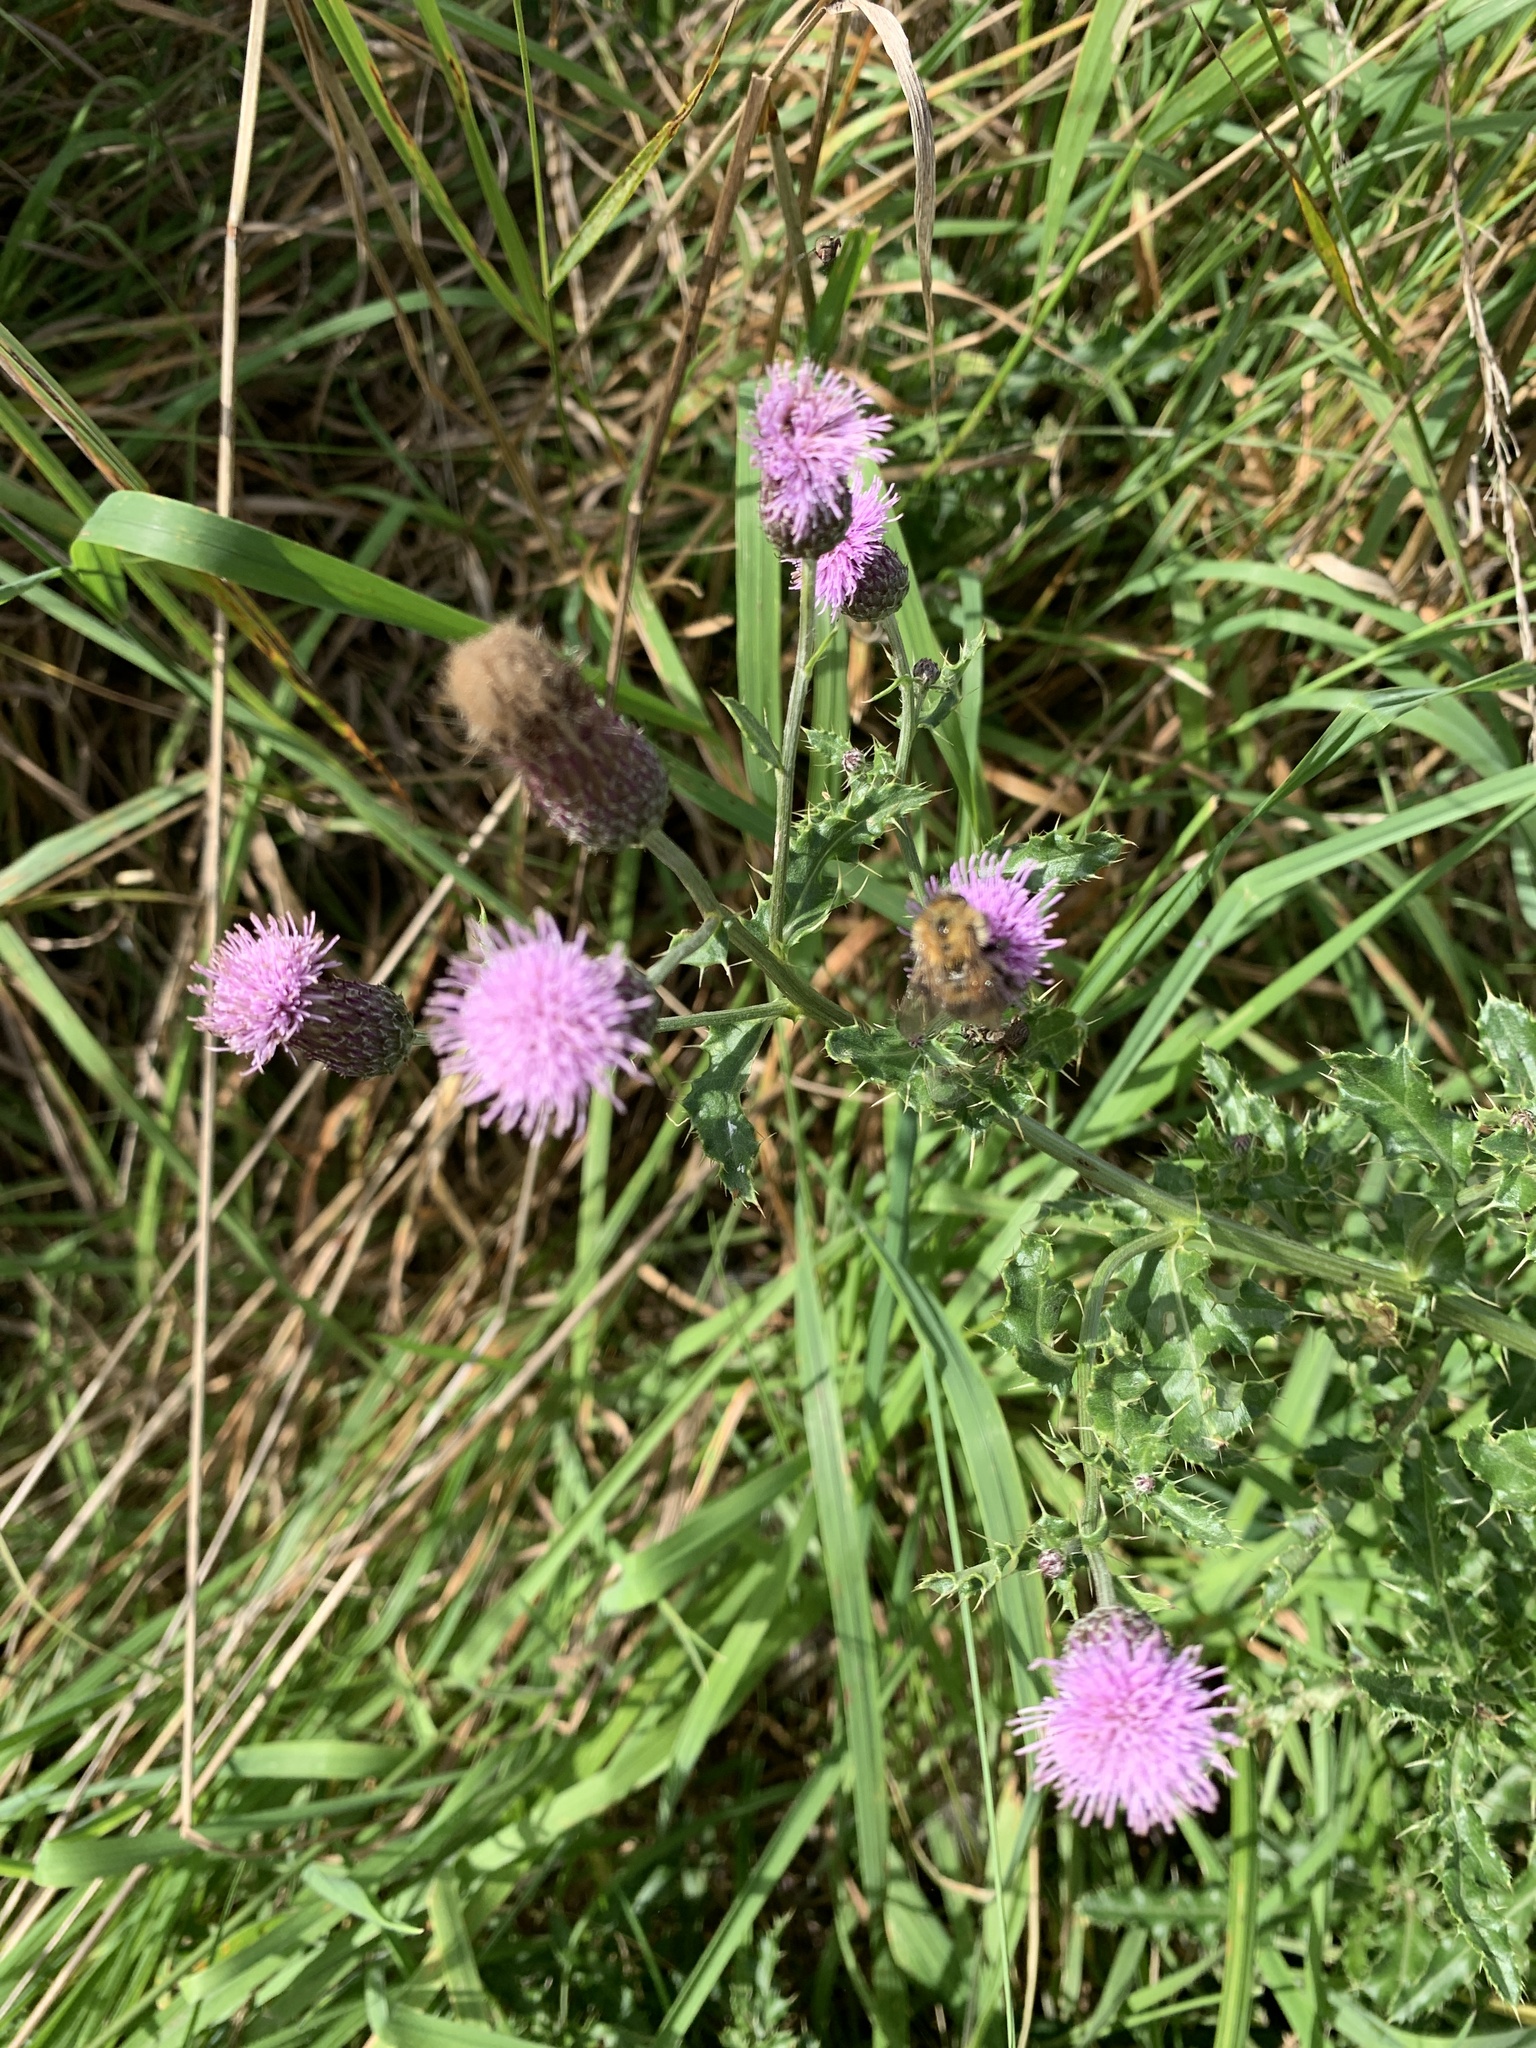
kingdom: Plantae
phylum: Tracheophyta
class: Magnoliopsida
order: Asterales
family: Asteraceae
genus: Cirsium
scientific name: Cirsium arvense
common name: Creeping thistle
